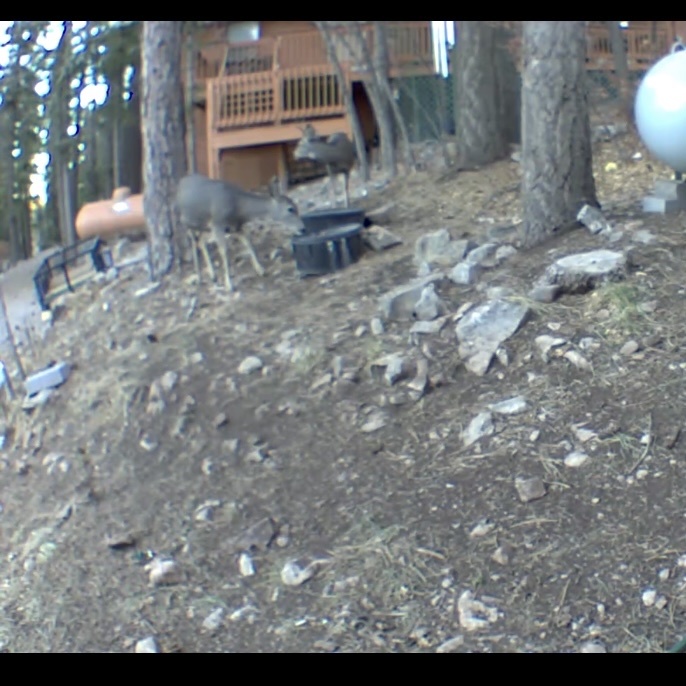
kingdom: Animalia
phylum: Chordata
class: Mammalia
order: Artiodactyla
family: Cervidae
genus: Odocoileus
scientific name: Odocoileus hemionus
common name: Mule deer
